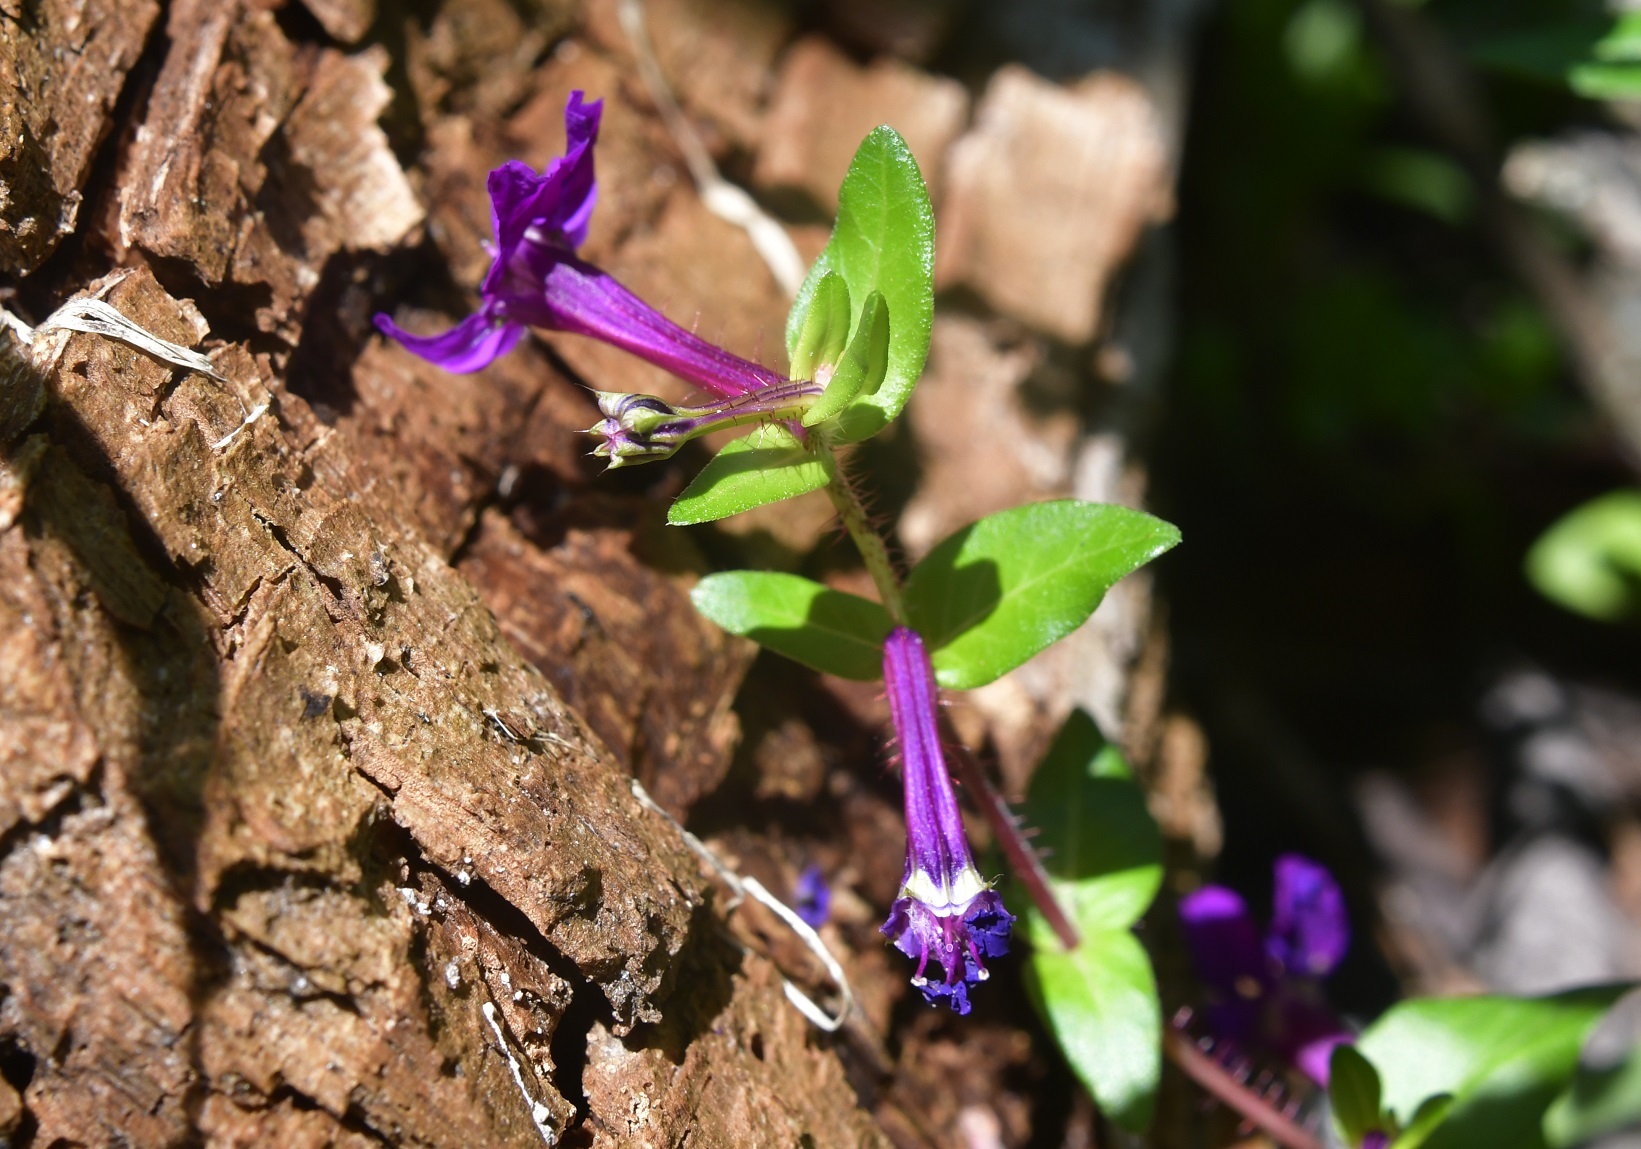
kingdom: Plantae
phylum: Tracheophyta
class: Magnoliopsida
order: Myrtales
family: Lythraceae
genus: Cuphea
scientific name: Cuphea aequipetala
